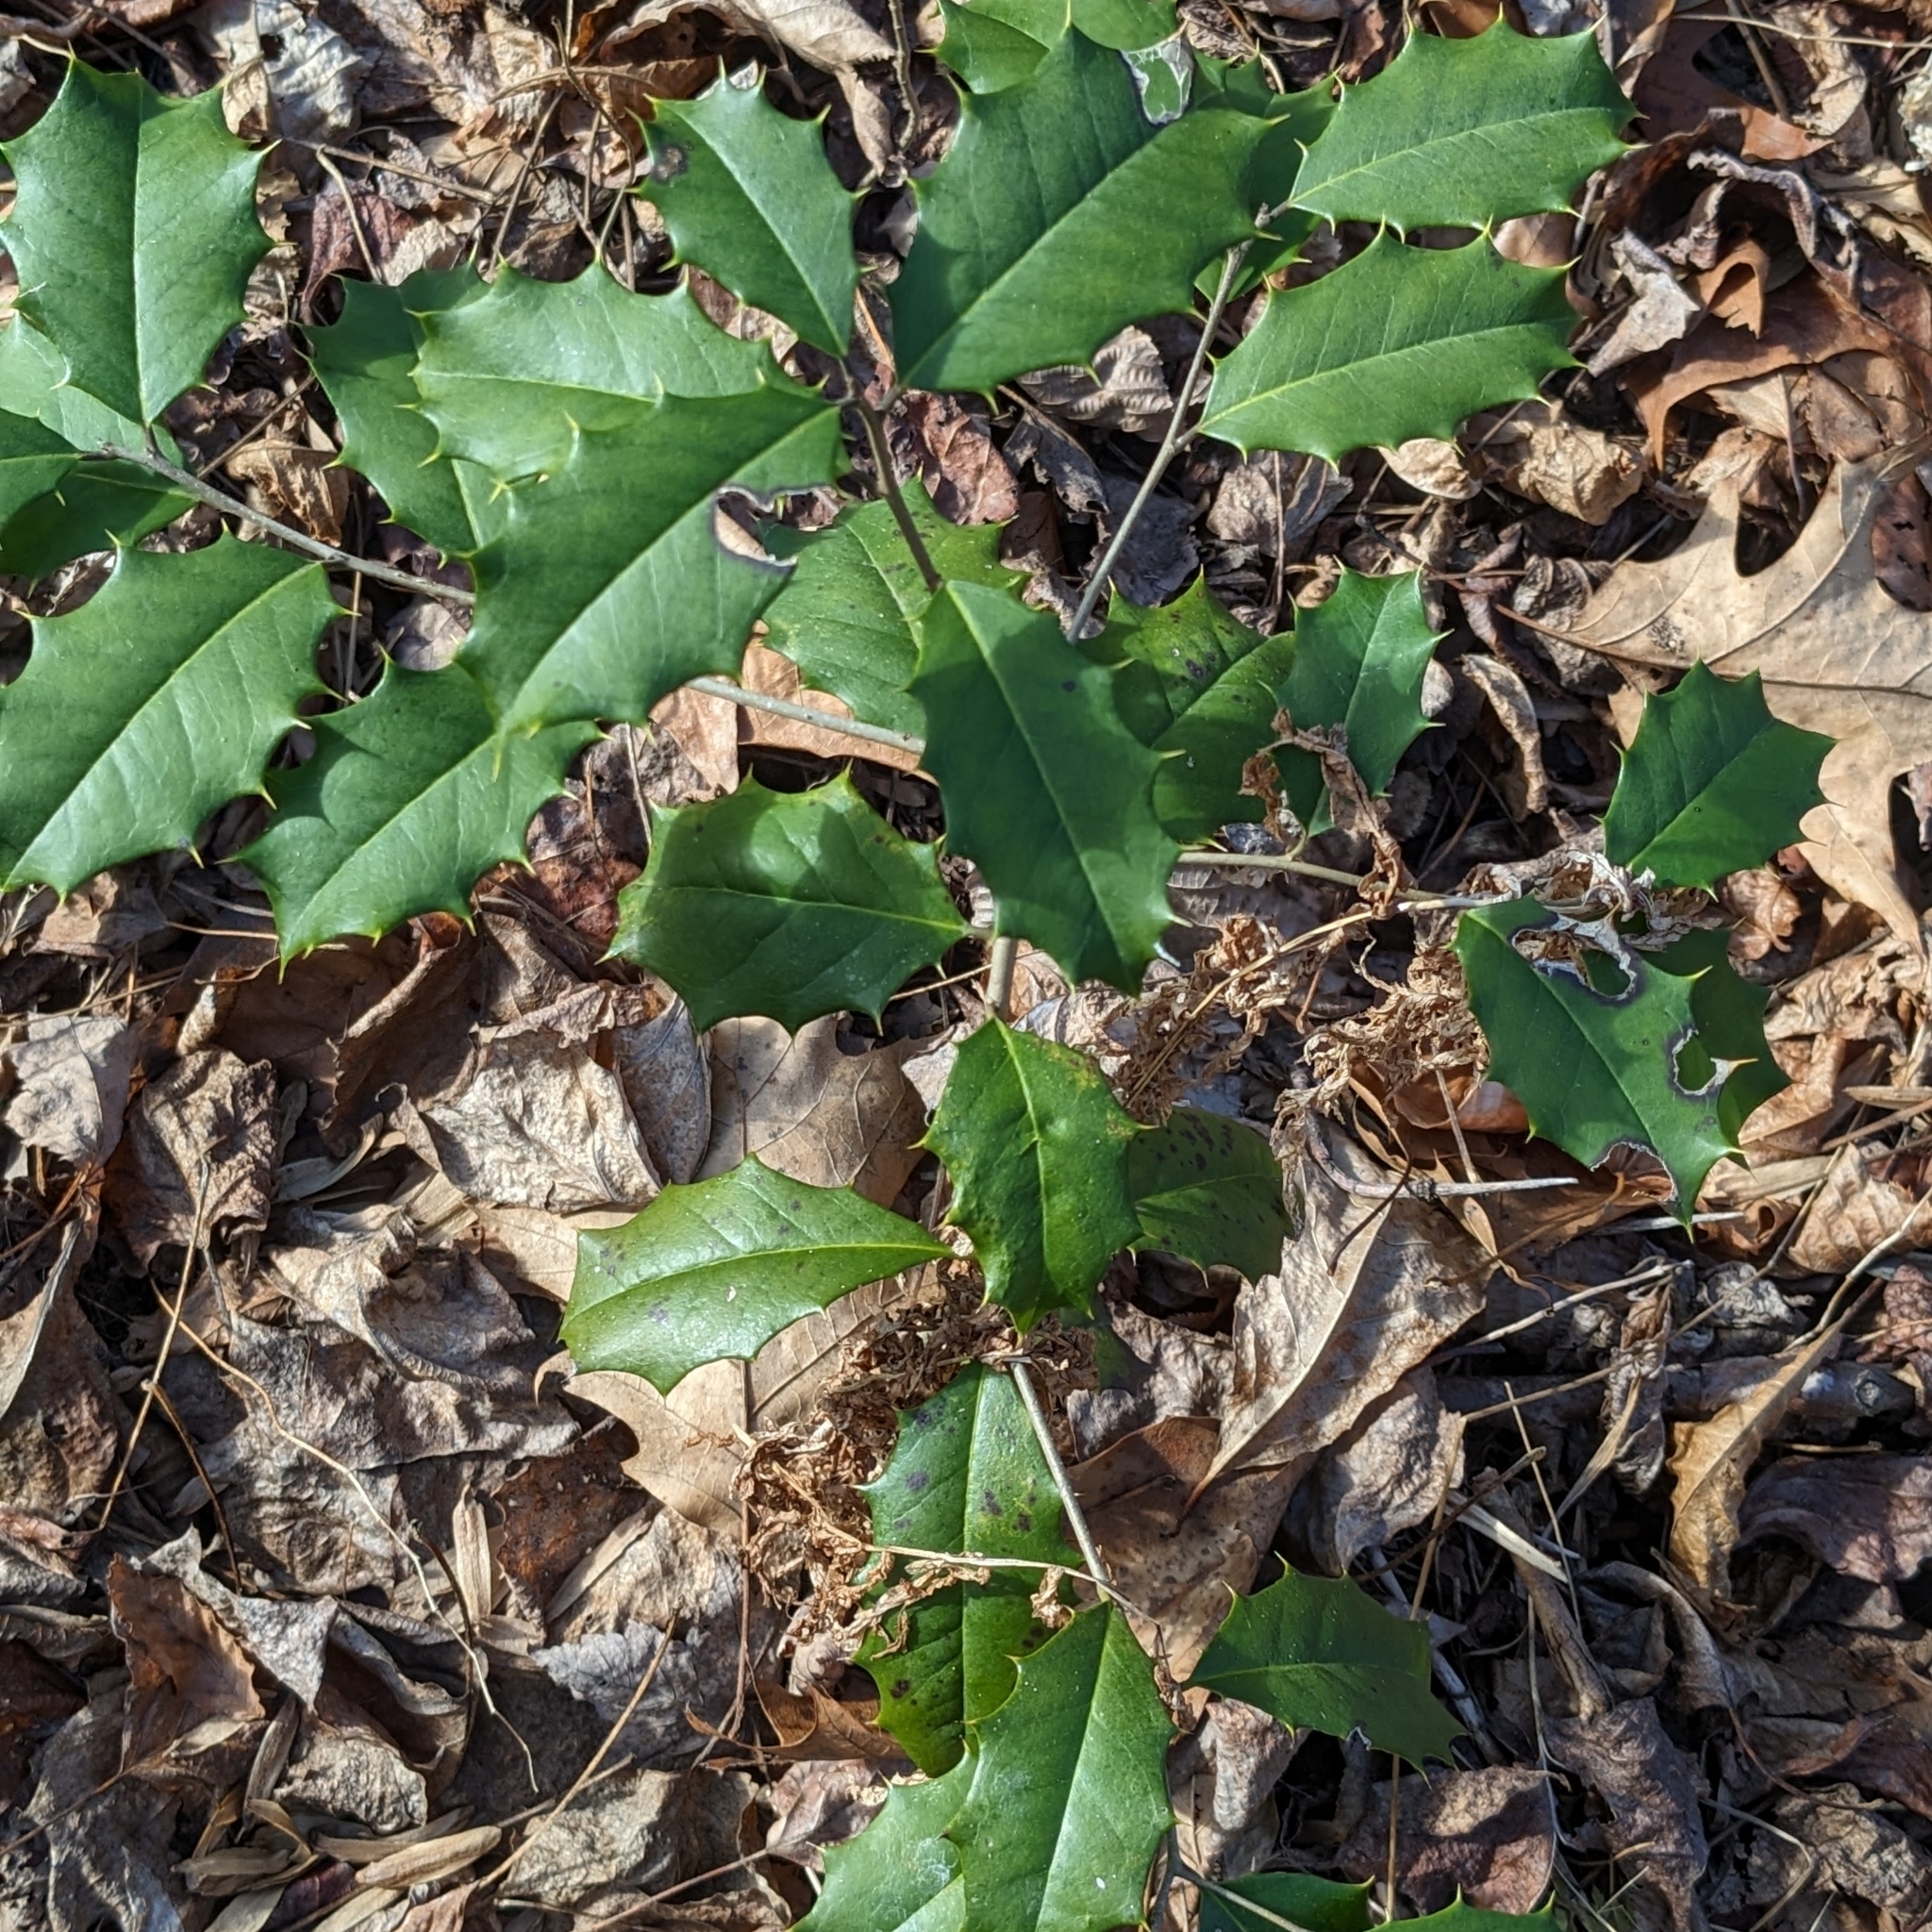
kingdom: Plantae
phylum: Tracheophyta
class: Magnoliopsida
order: Aquifoliales
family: Aquifoliaceae
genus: Ilex
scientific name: Ilex opaca
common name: American holly
